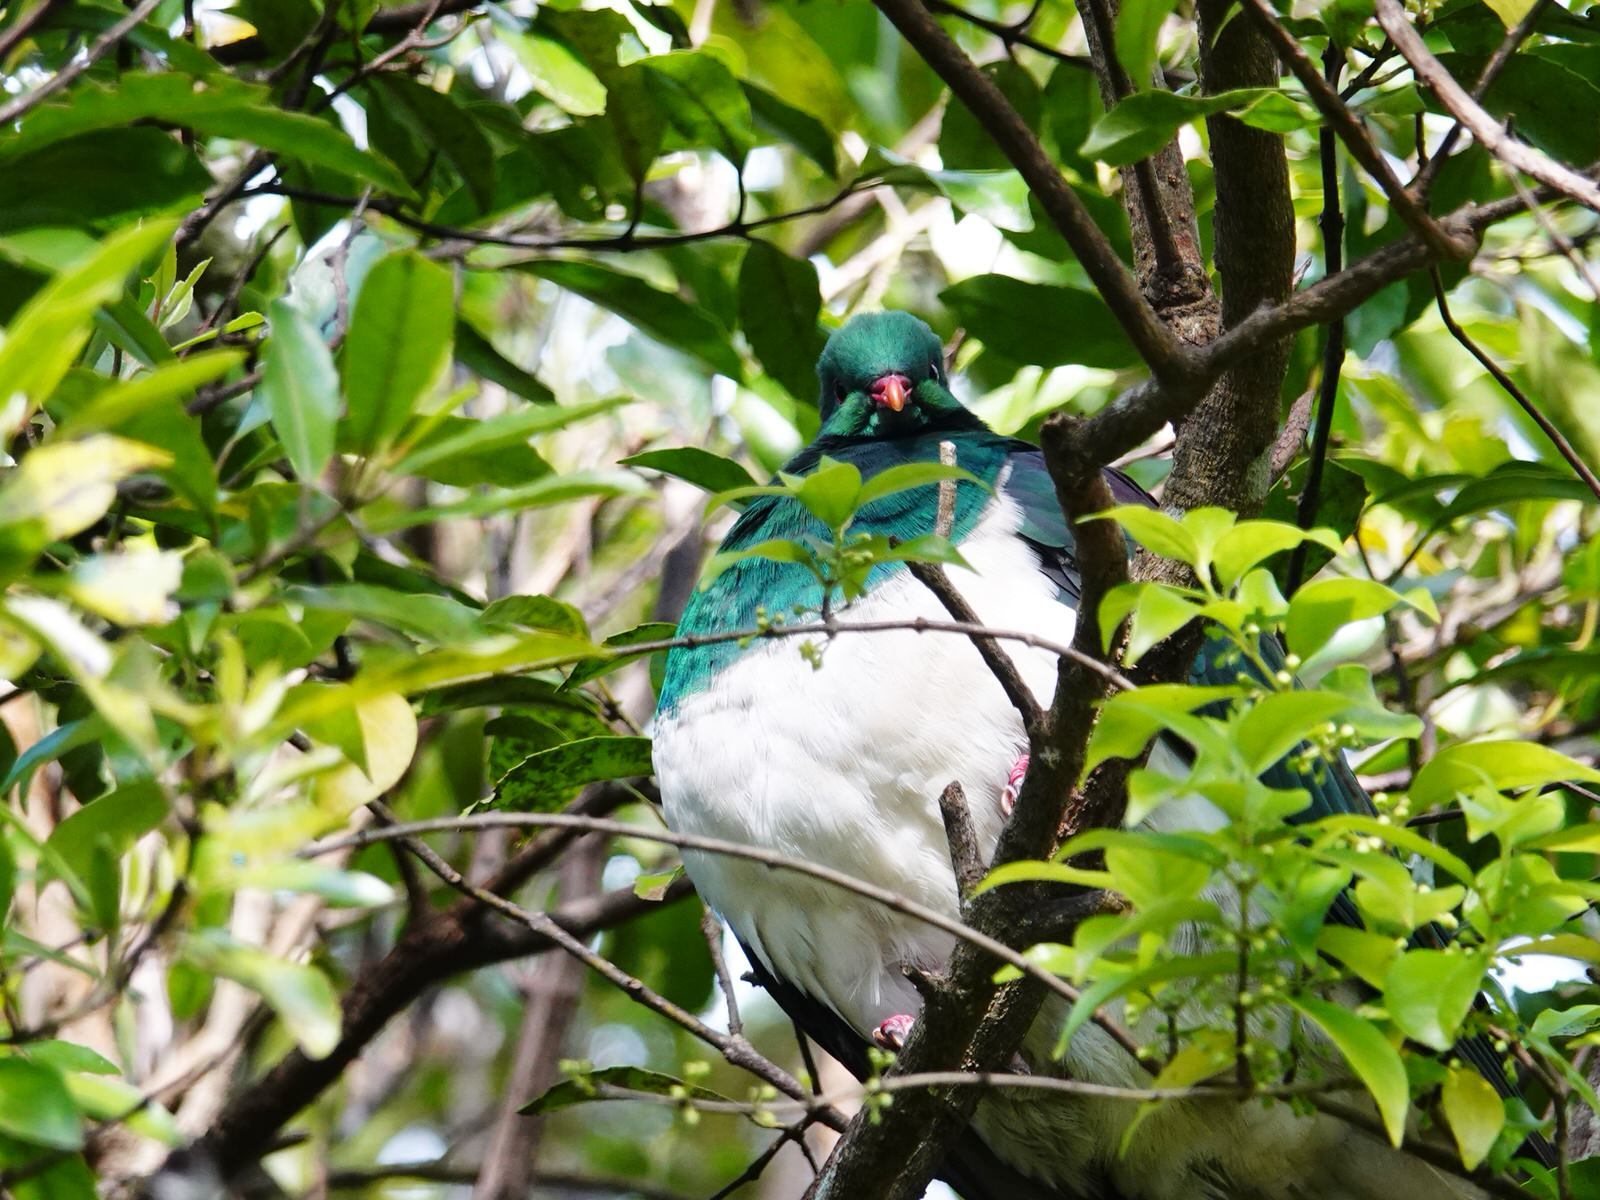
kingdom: Animalia
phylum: Chordata
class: Aves
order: Columbiformes
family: Columbidae
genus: Hemiphaga
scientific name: Hemiphaga novaeseelandiae
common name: New zealand pigeon
